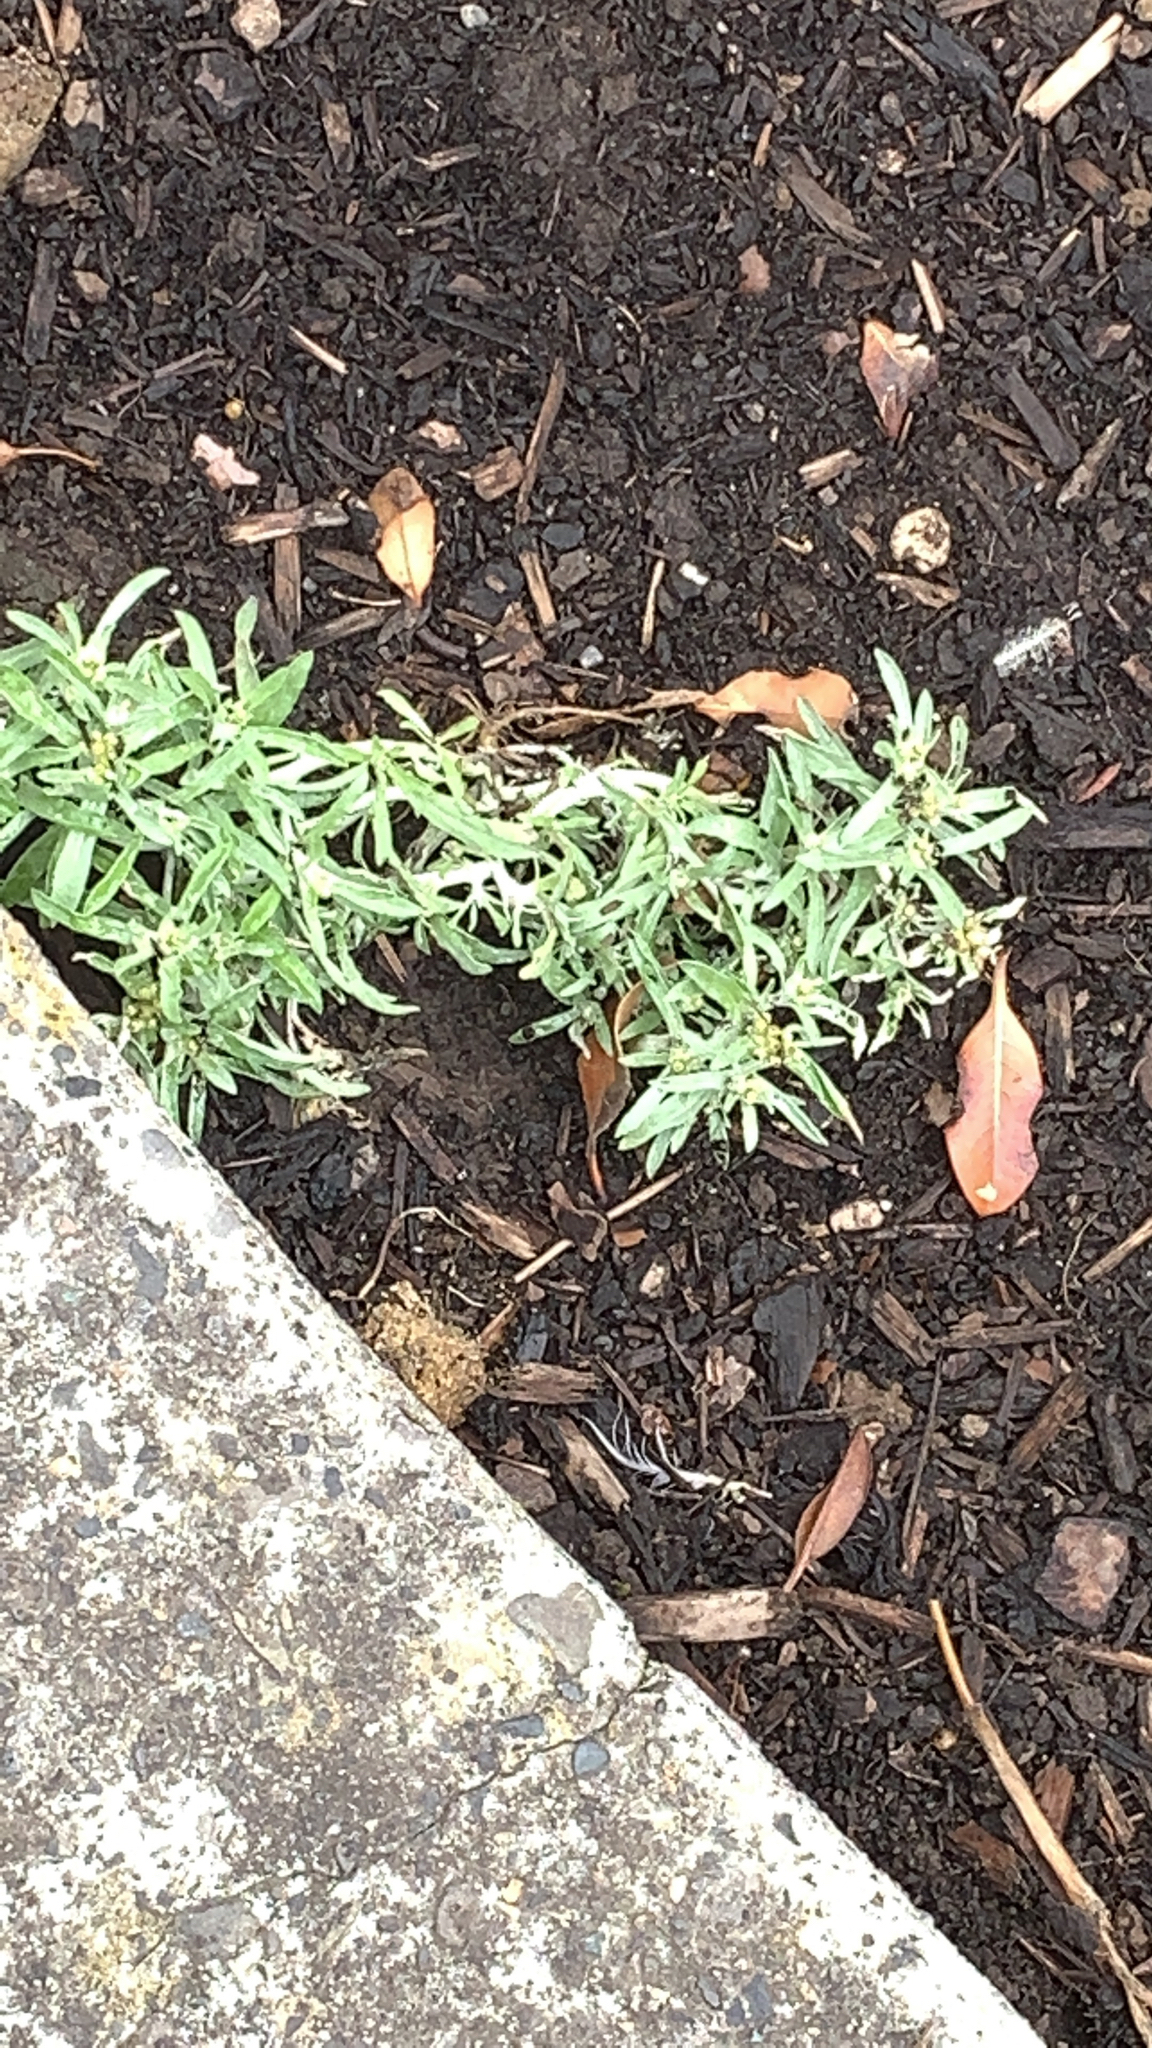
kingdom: Plantae
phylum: Tracheophyta
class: Magnoliopsida
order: Asterales
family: Asteraceae
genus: Gnaphalium
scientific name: Gnaphalium uliginosum
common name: Marsh cudweed
